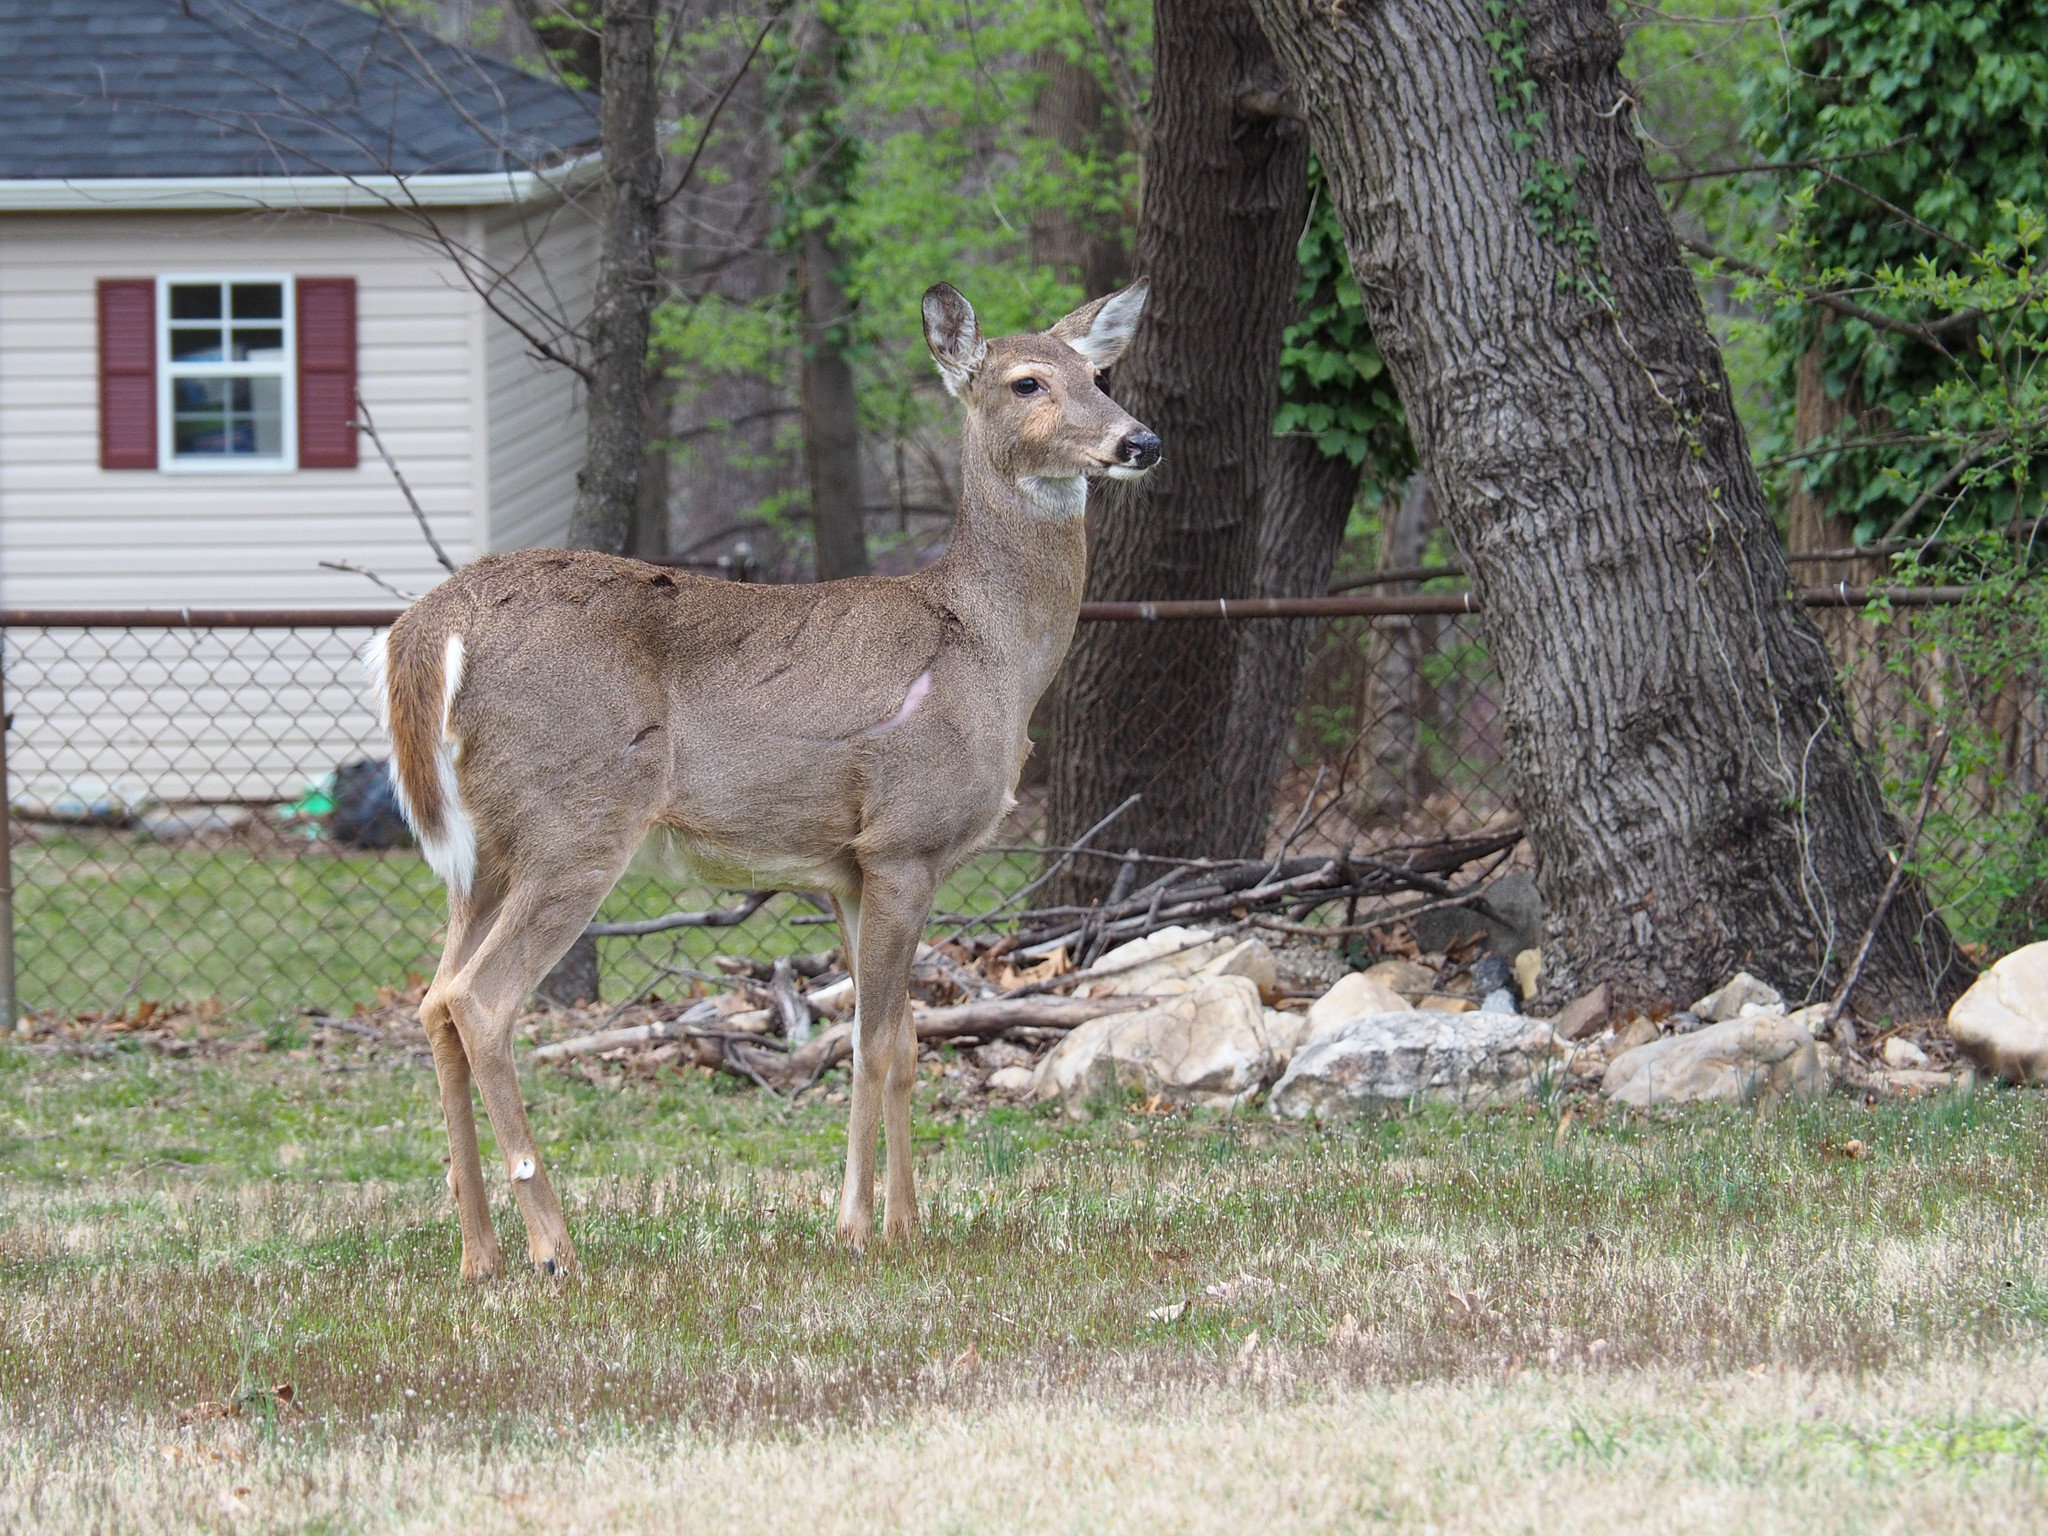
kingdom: Animalia
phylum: Chordata
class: Mammalia
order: Artiodactyla
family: Cervidae
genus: Odocoileus
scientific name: Odocoileus virginianus
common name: White-tailed deer
